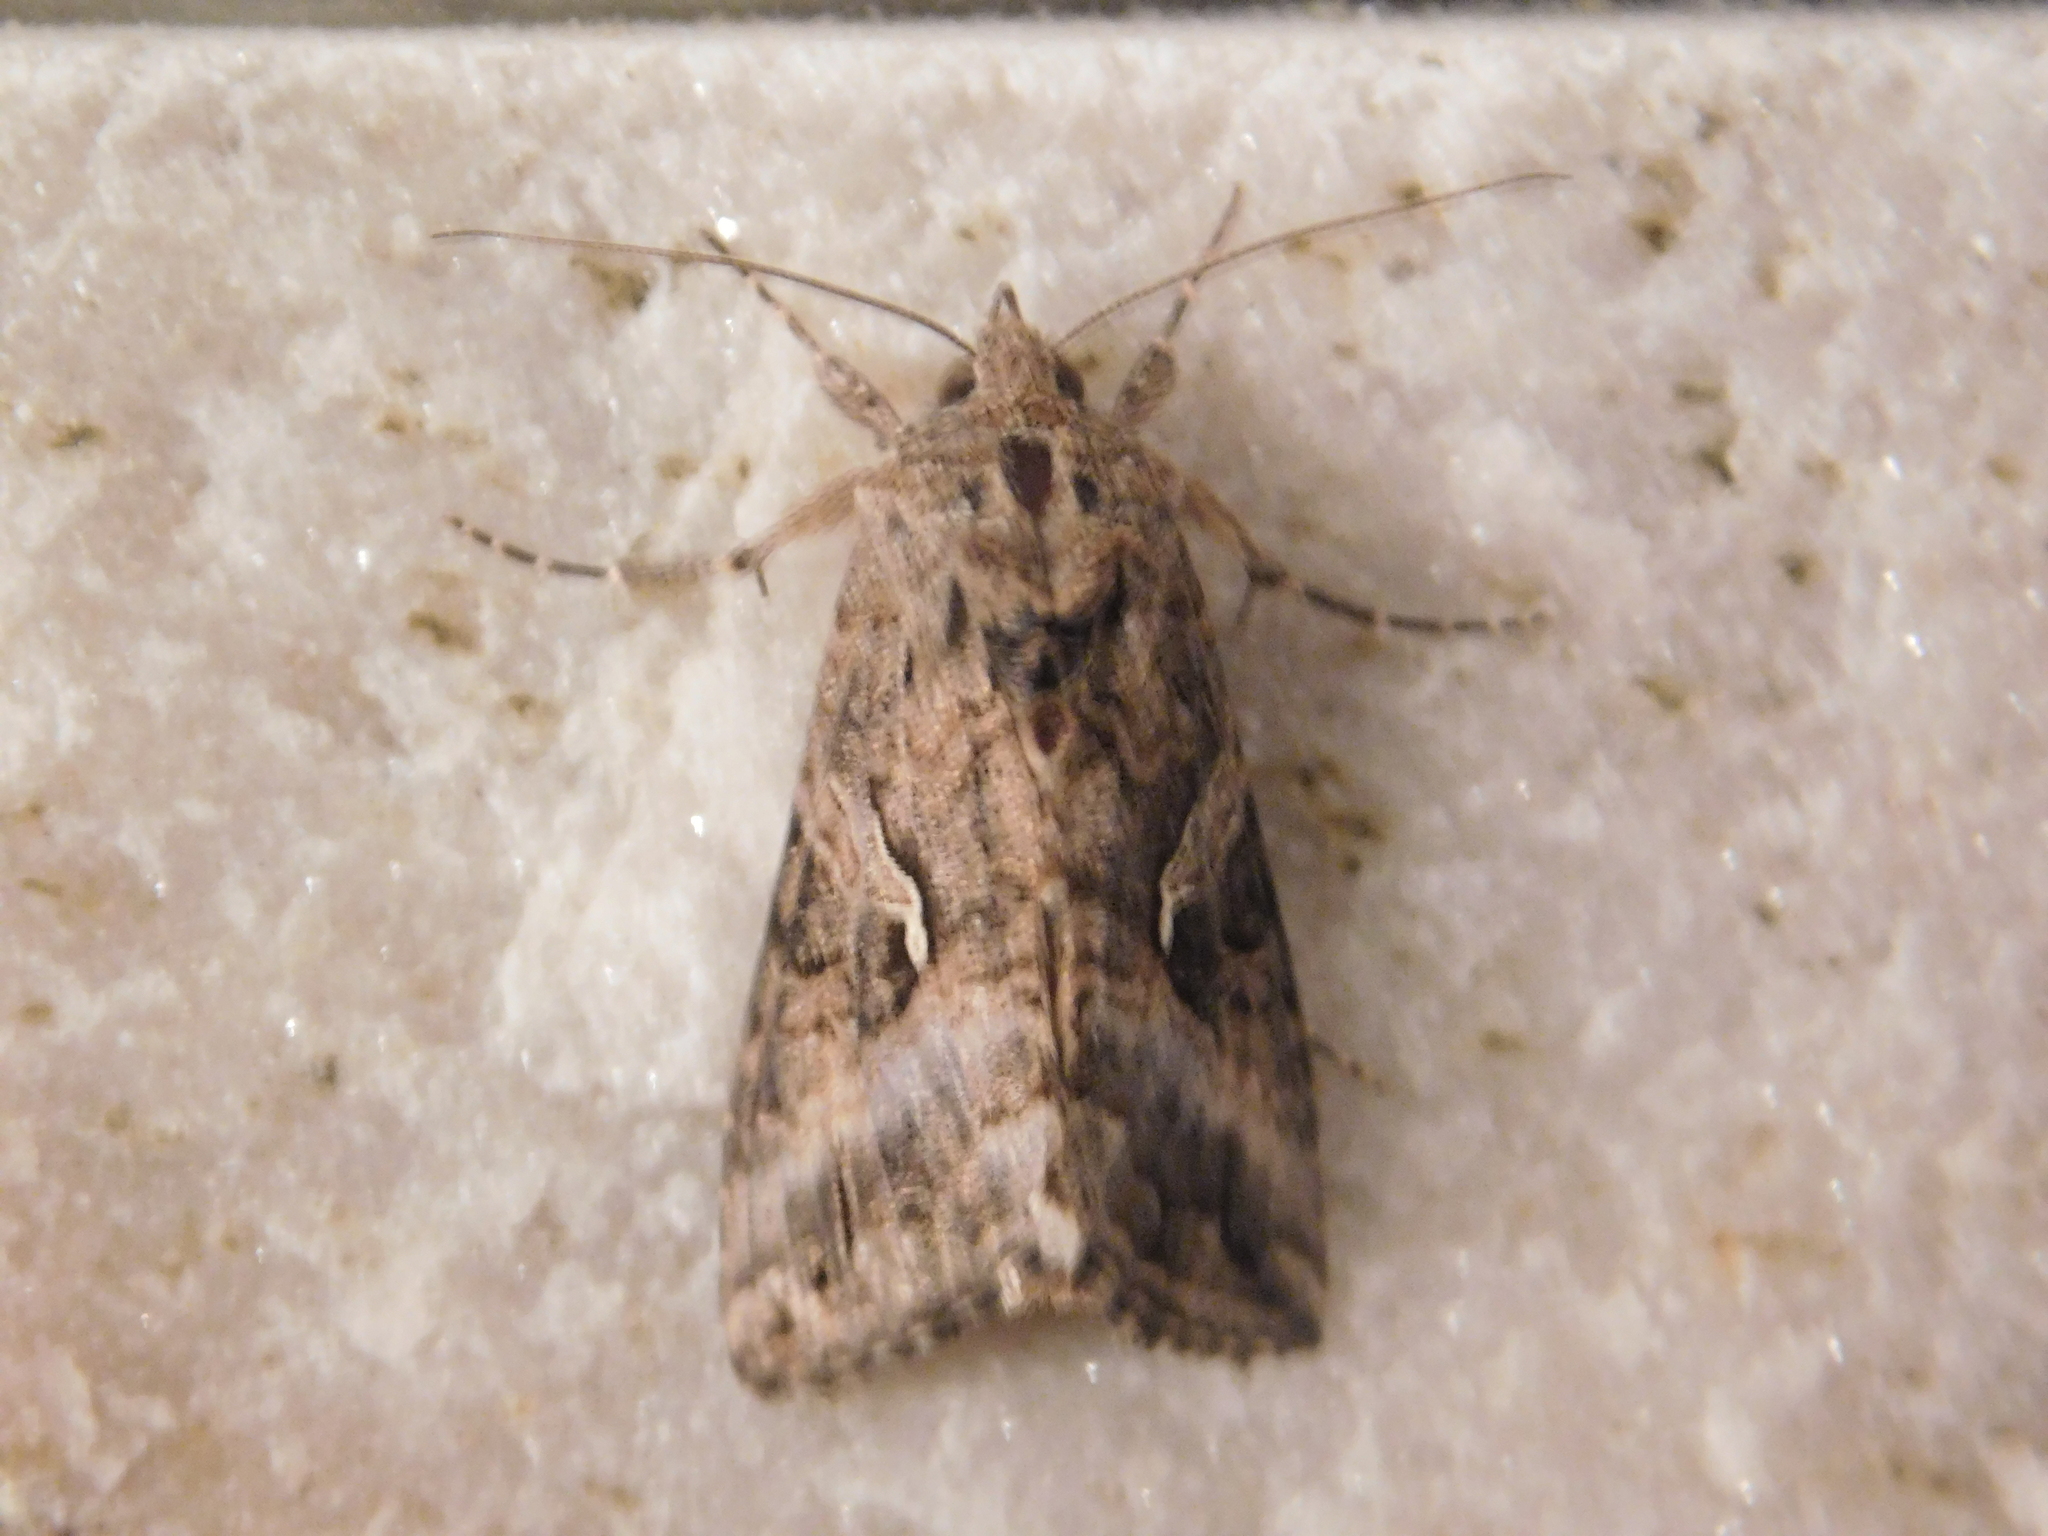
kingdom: Animalia
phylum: Arthropoda
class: Insecta
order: Lepidoptera
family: Noctuidae
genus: Rachiplusia
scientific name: Rachiplusia nu
